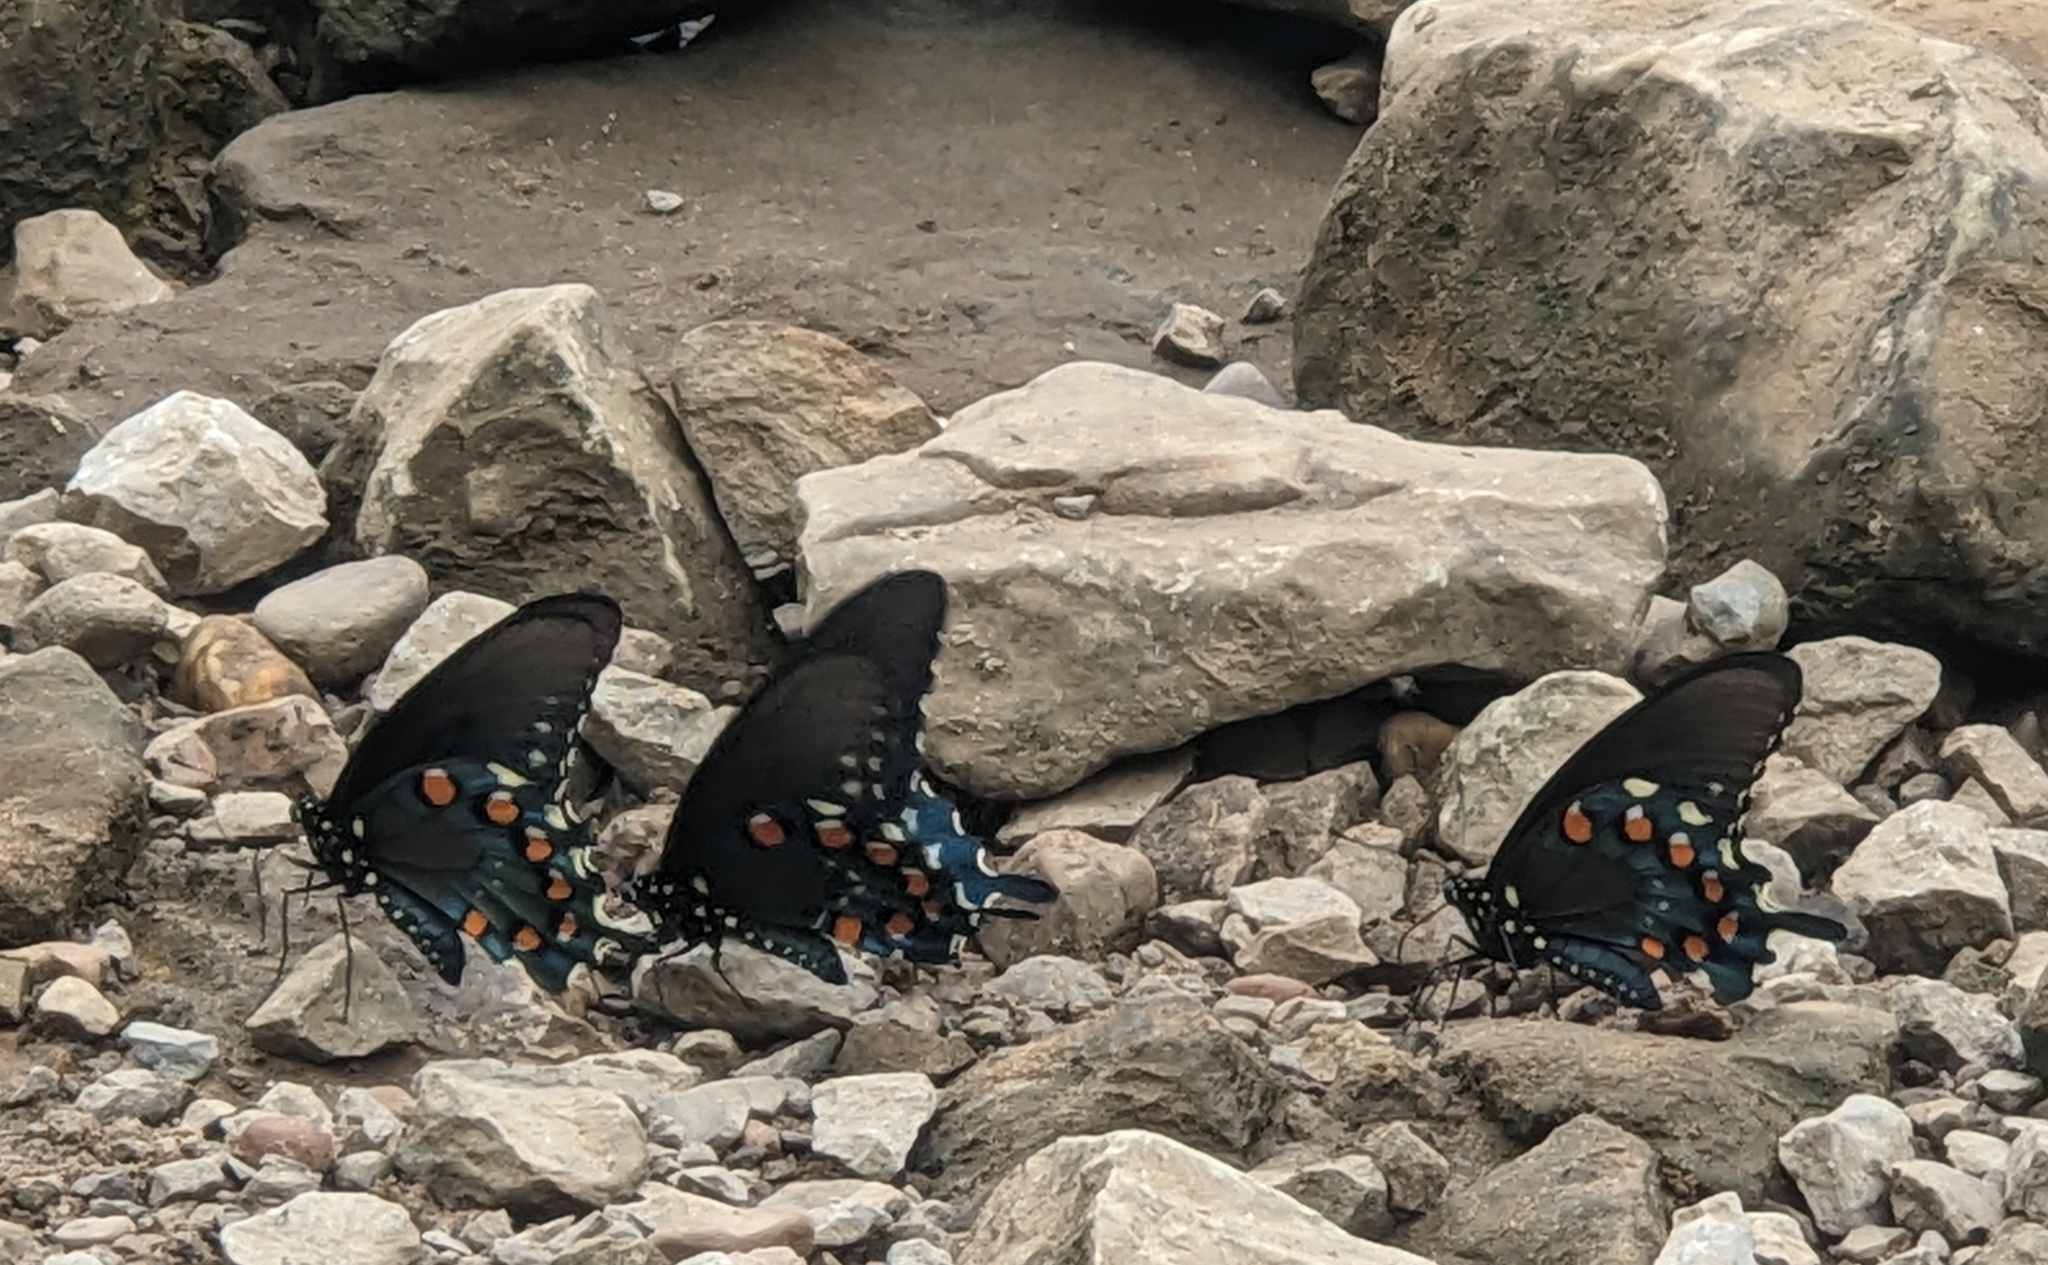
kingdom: Animalia
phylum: Arthropoda
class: Insecta
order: Lepidoptera
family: Papilionidae
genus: Battus
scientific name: Battus philenor
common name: Pipevine swallowtail
